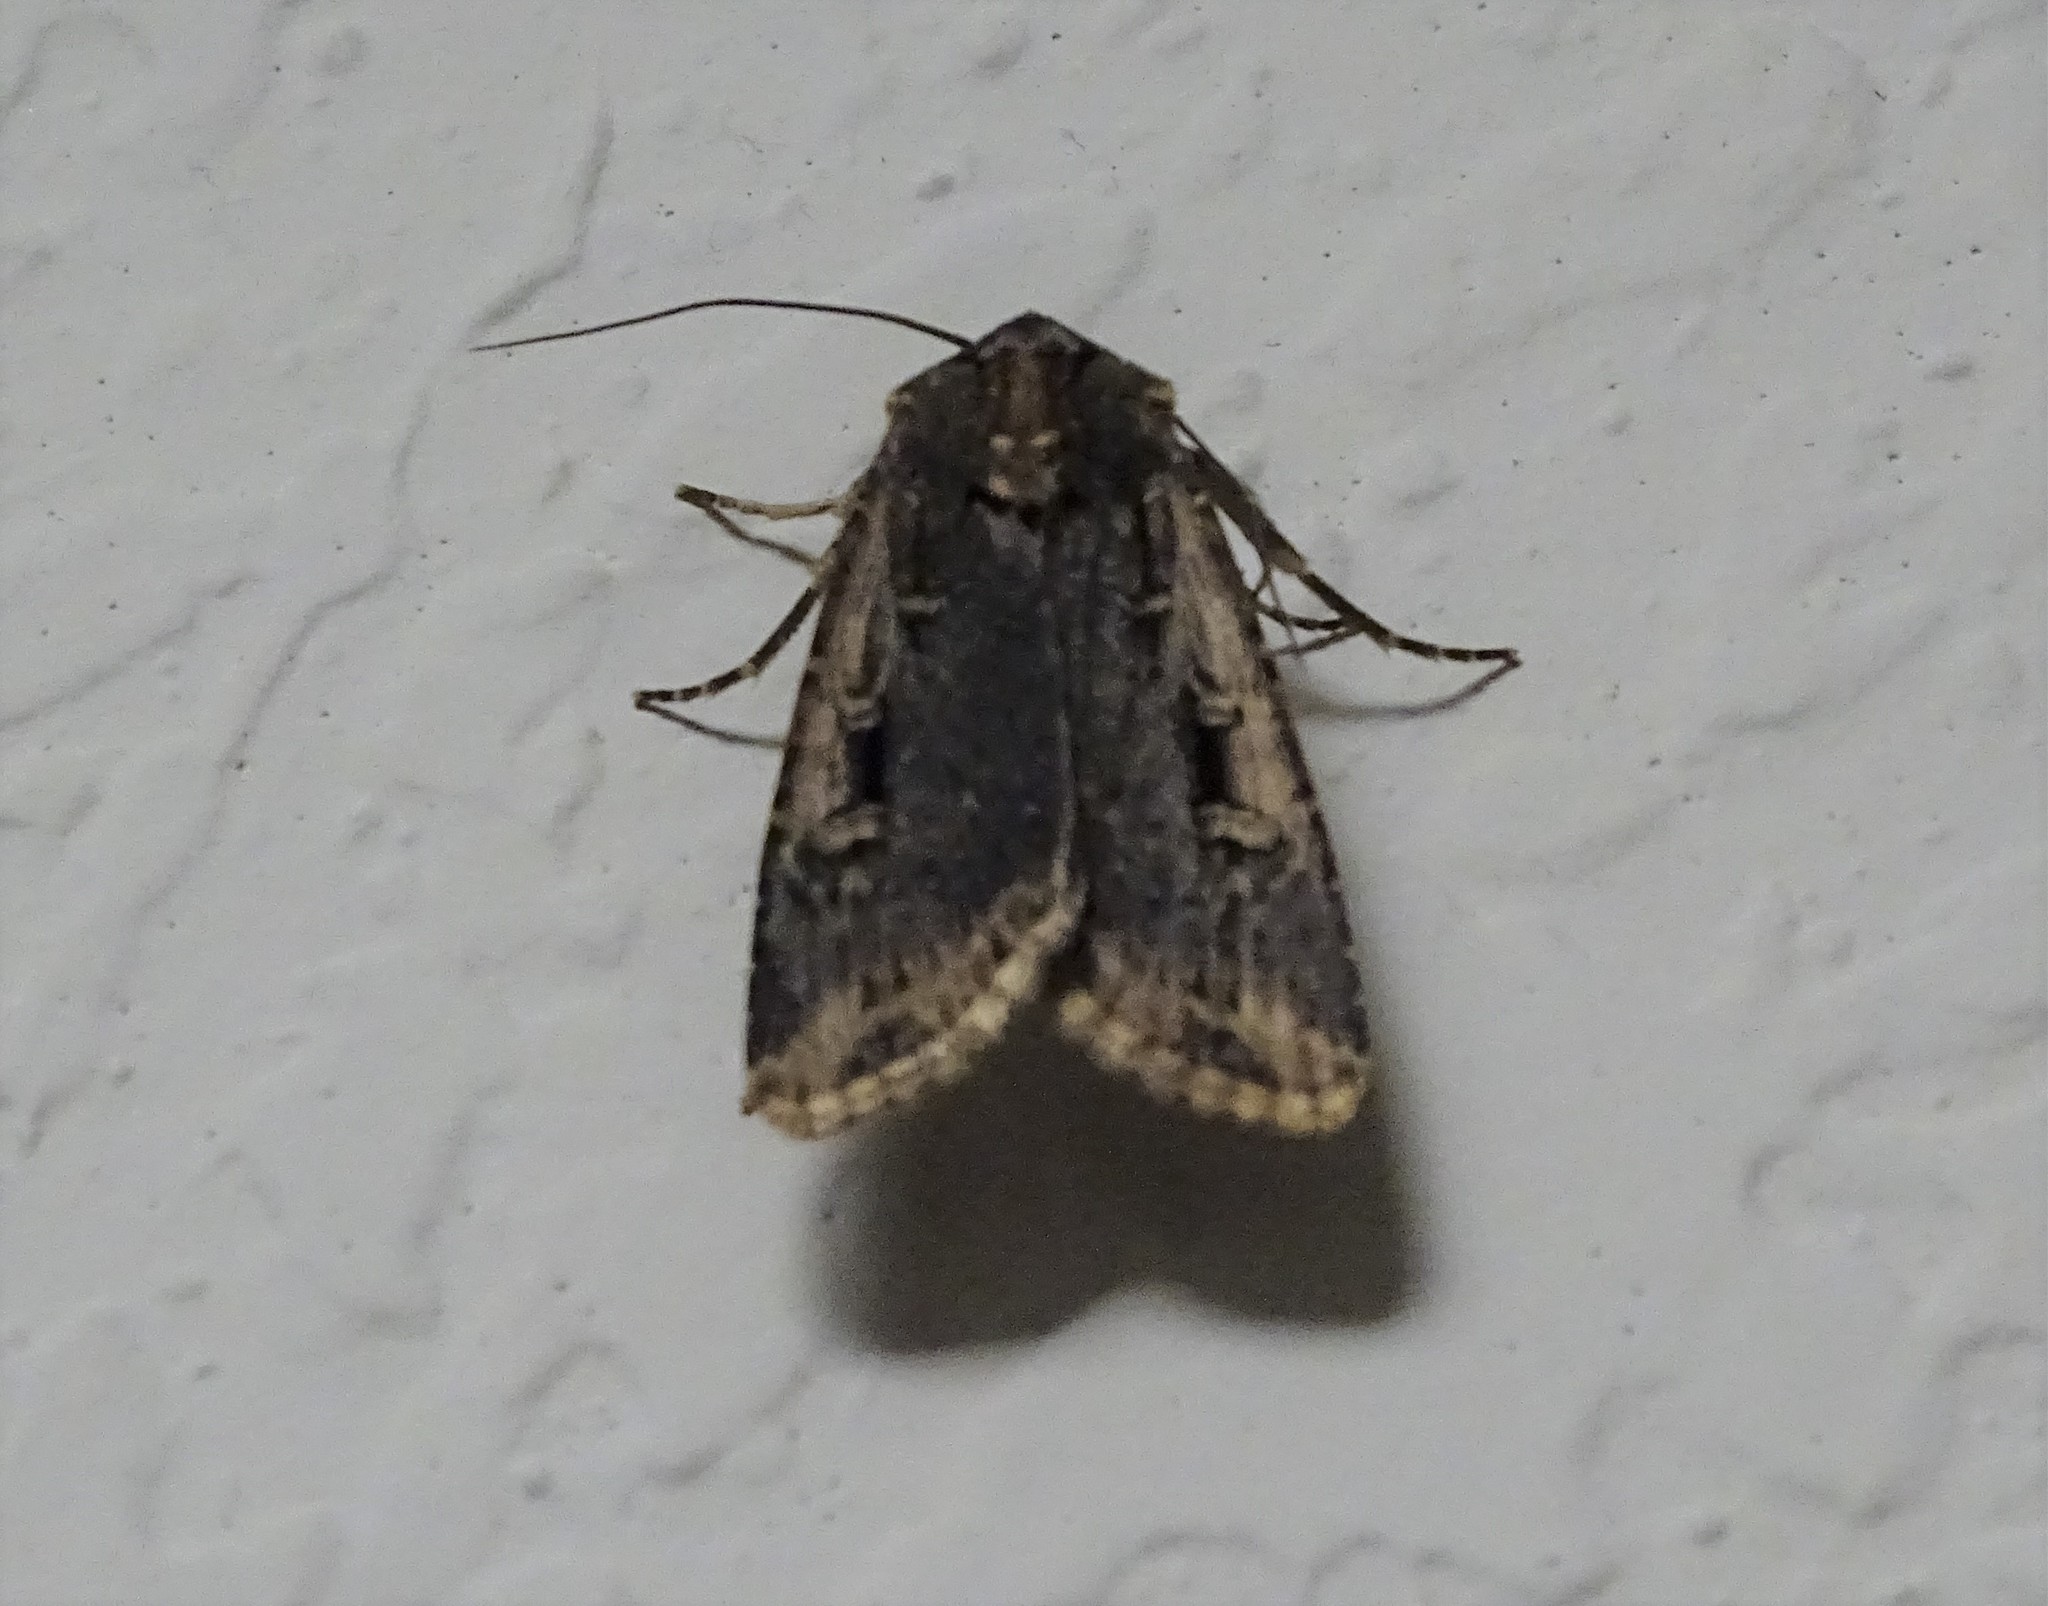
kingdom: Animalia
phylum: Arthropoda
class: Insecta
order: Lepidoptera
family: Noctuidae
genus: Feltia
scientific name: Feltia subterranea
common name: Granulate cutworm
